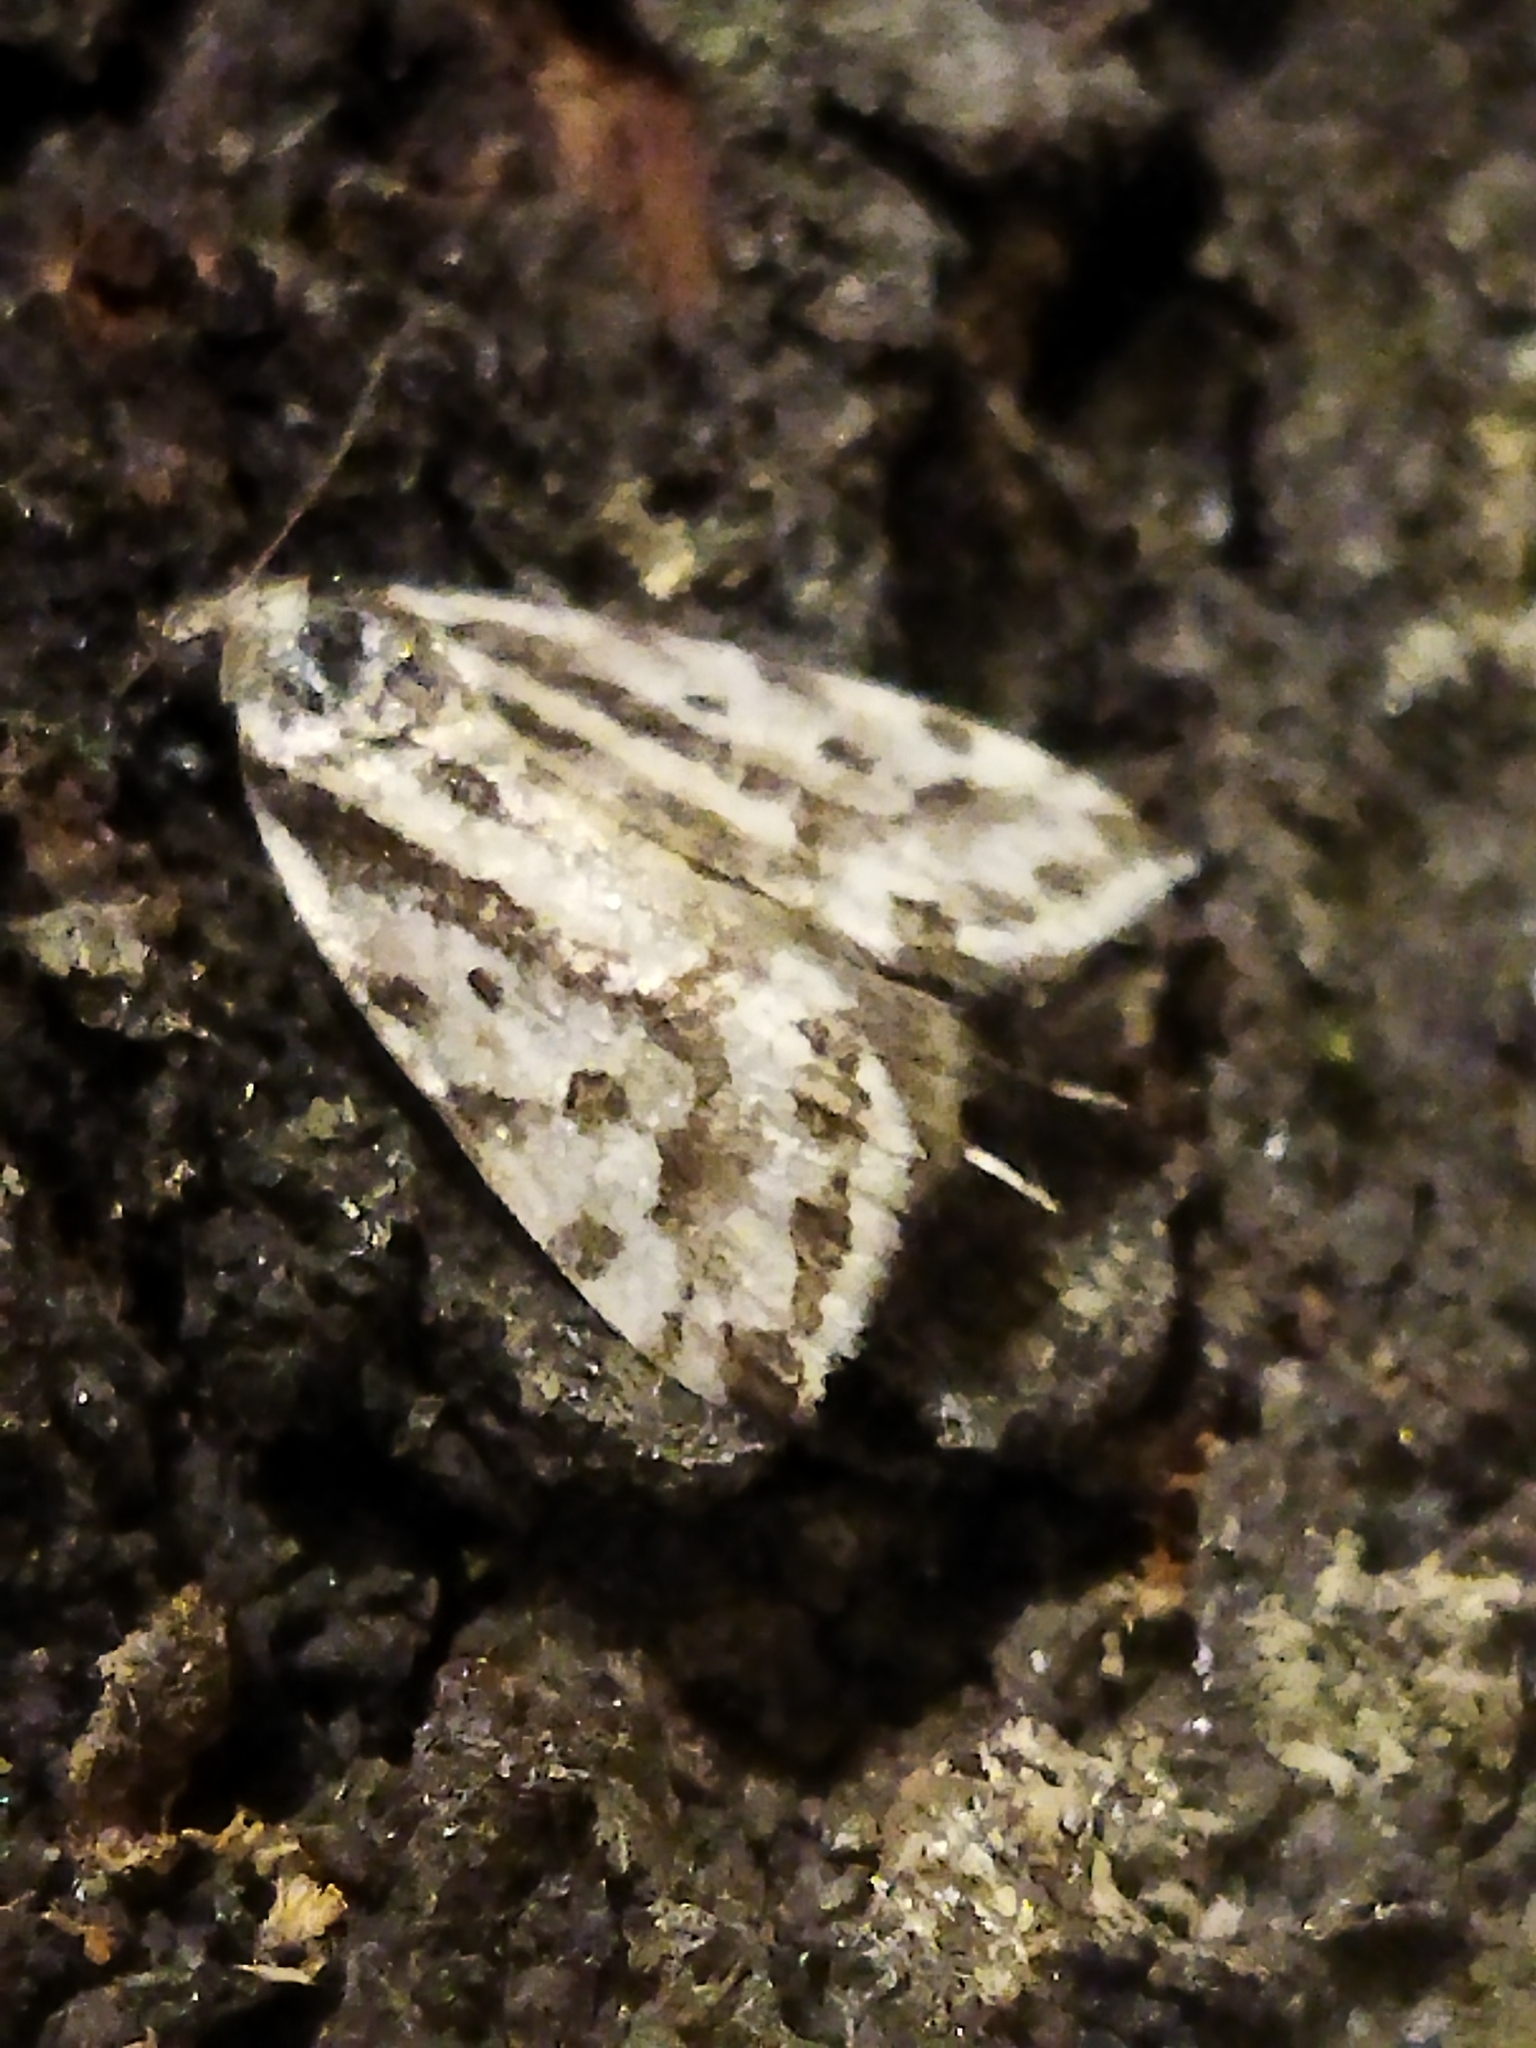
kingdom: Animalia
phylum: Arthropoda
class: Insecta
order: Lepidoptera
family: Noctuidae
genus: Acontia
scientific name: Acontia trabealis
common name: Spotted sulphur
